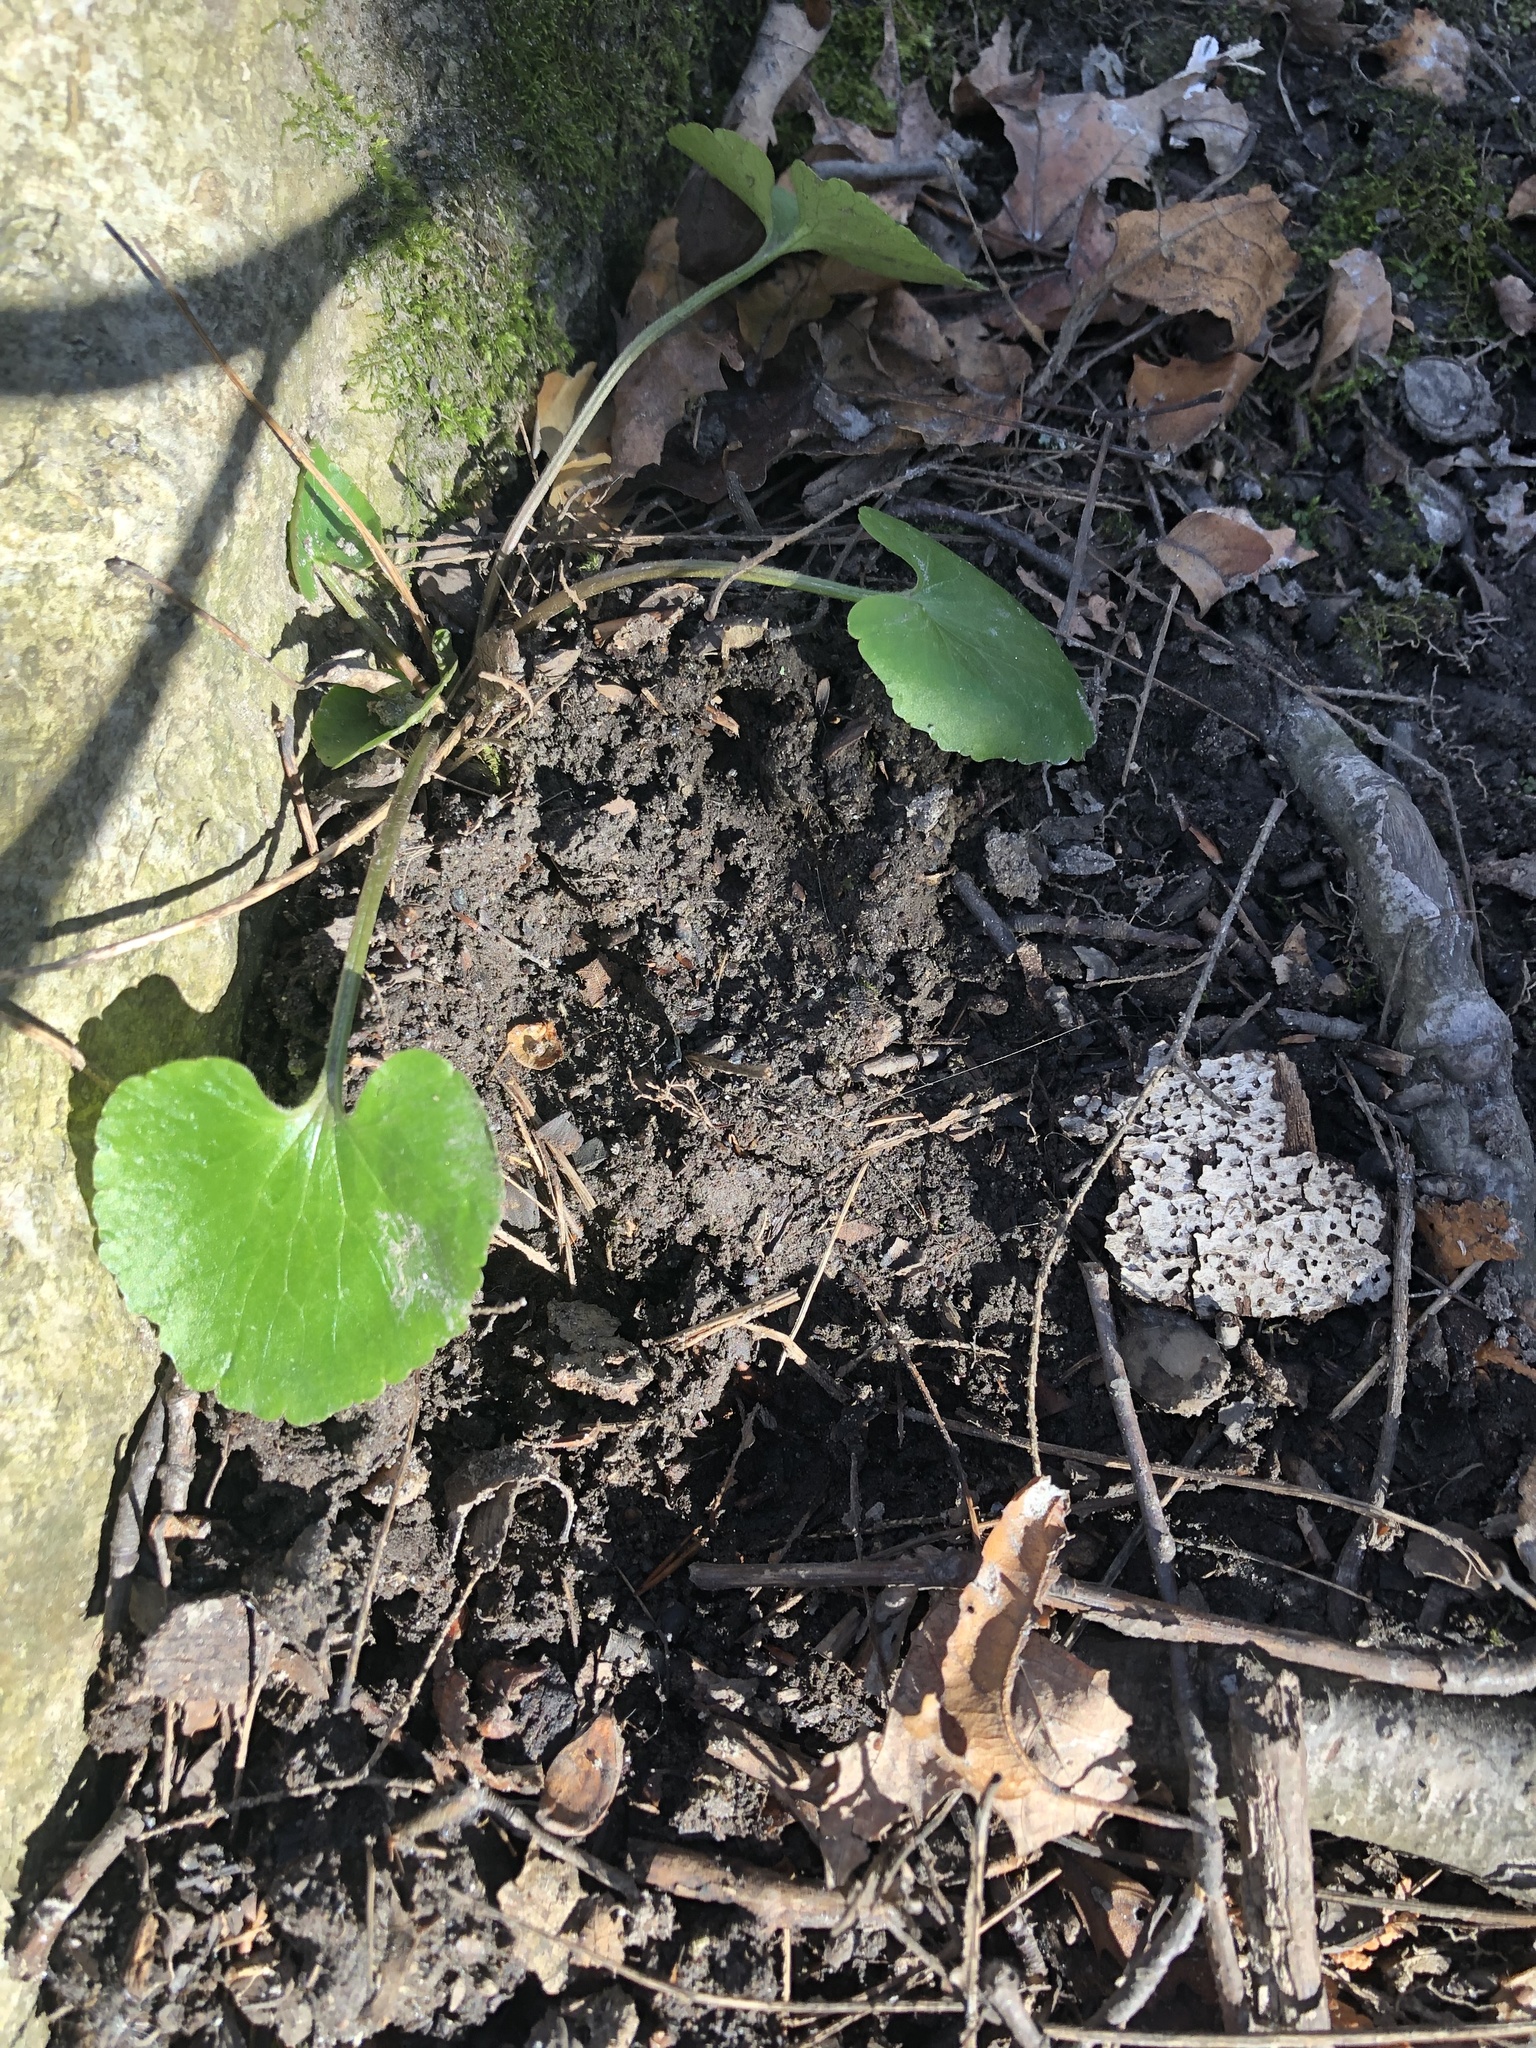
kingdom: Plantae
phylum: Tracheophyta
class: Magnoliopsida
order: Ranunculales
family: Ranunculaceae
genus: Ranunculus
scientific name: Ranunculus abortivus
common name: Early wood buttercup
